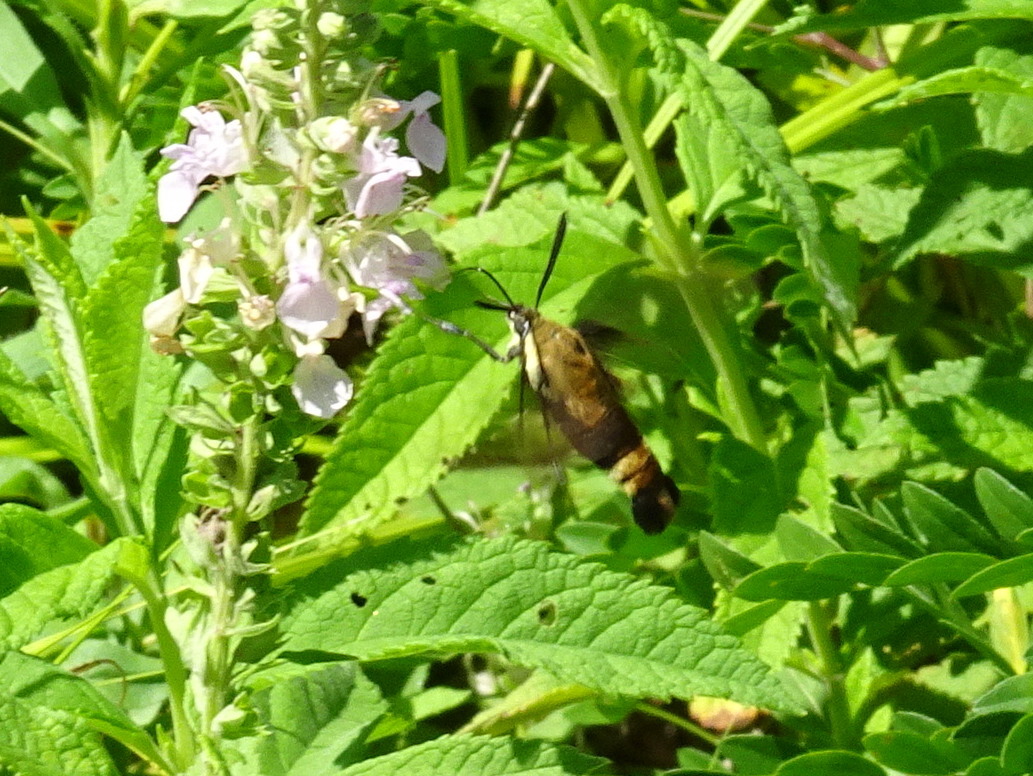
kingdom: Animalia
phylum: Arthropoda
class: Insecta
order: Lepidoptera
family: Sphingidae
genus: Hemaris
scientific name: Hemaris diffinis
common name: Bumblebee moth
